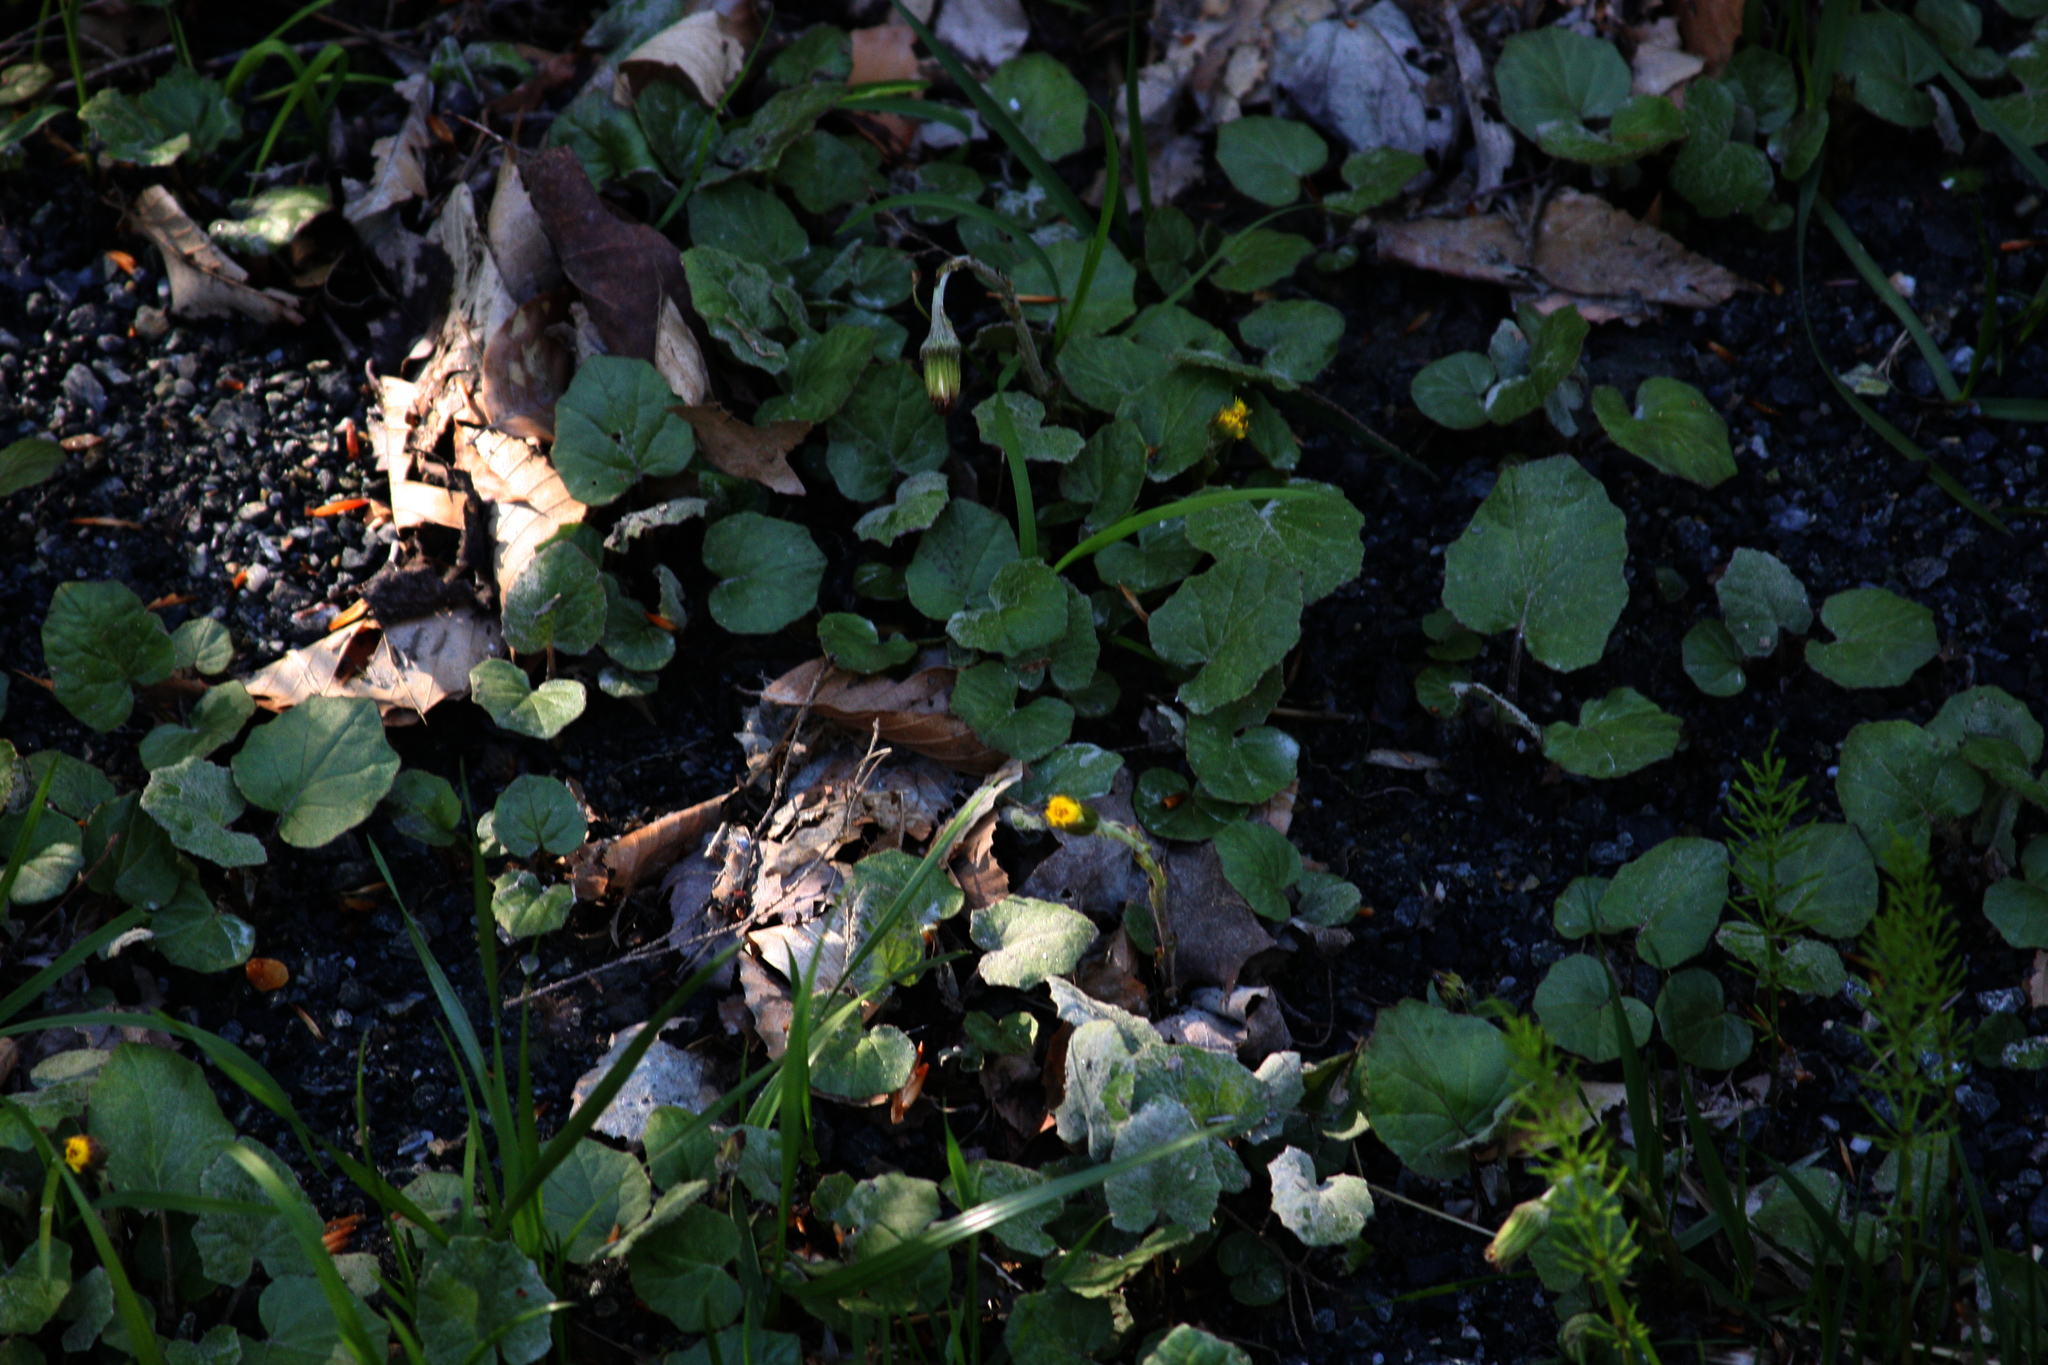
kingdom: Plantae
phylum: Tracheophyta
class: Magnoliopsida
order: Asterales
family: Asteraceae
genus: Tussilago
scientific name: Tussilago farfara
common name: Coltsfoot
